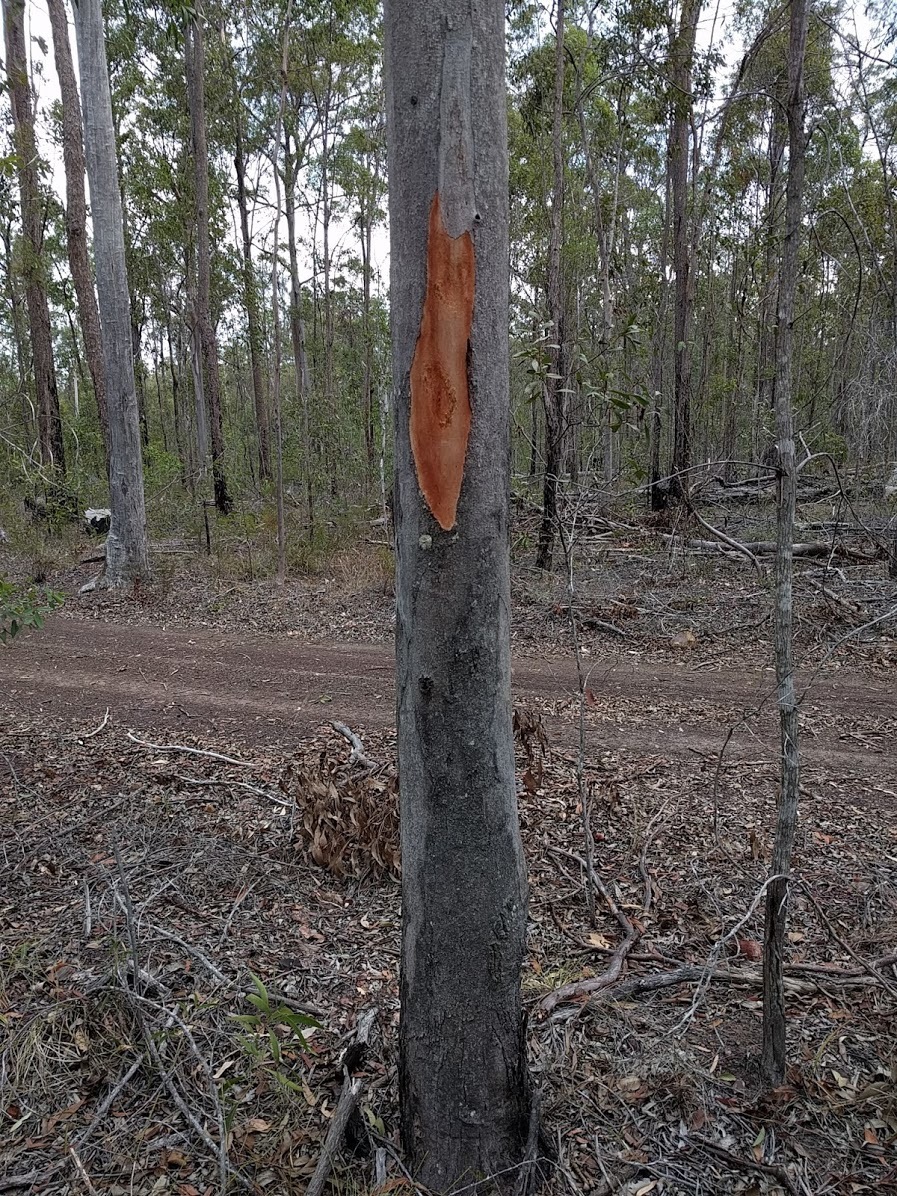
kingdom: Plantae
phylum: Tracheophyta
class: Magnoliopsida
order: Myrtales
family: Myrtaceae
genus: Eucalyptus
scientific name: Eucalyptus major
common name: Queensland grey gum
